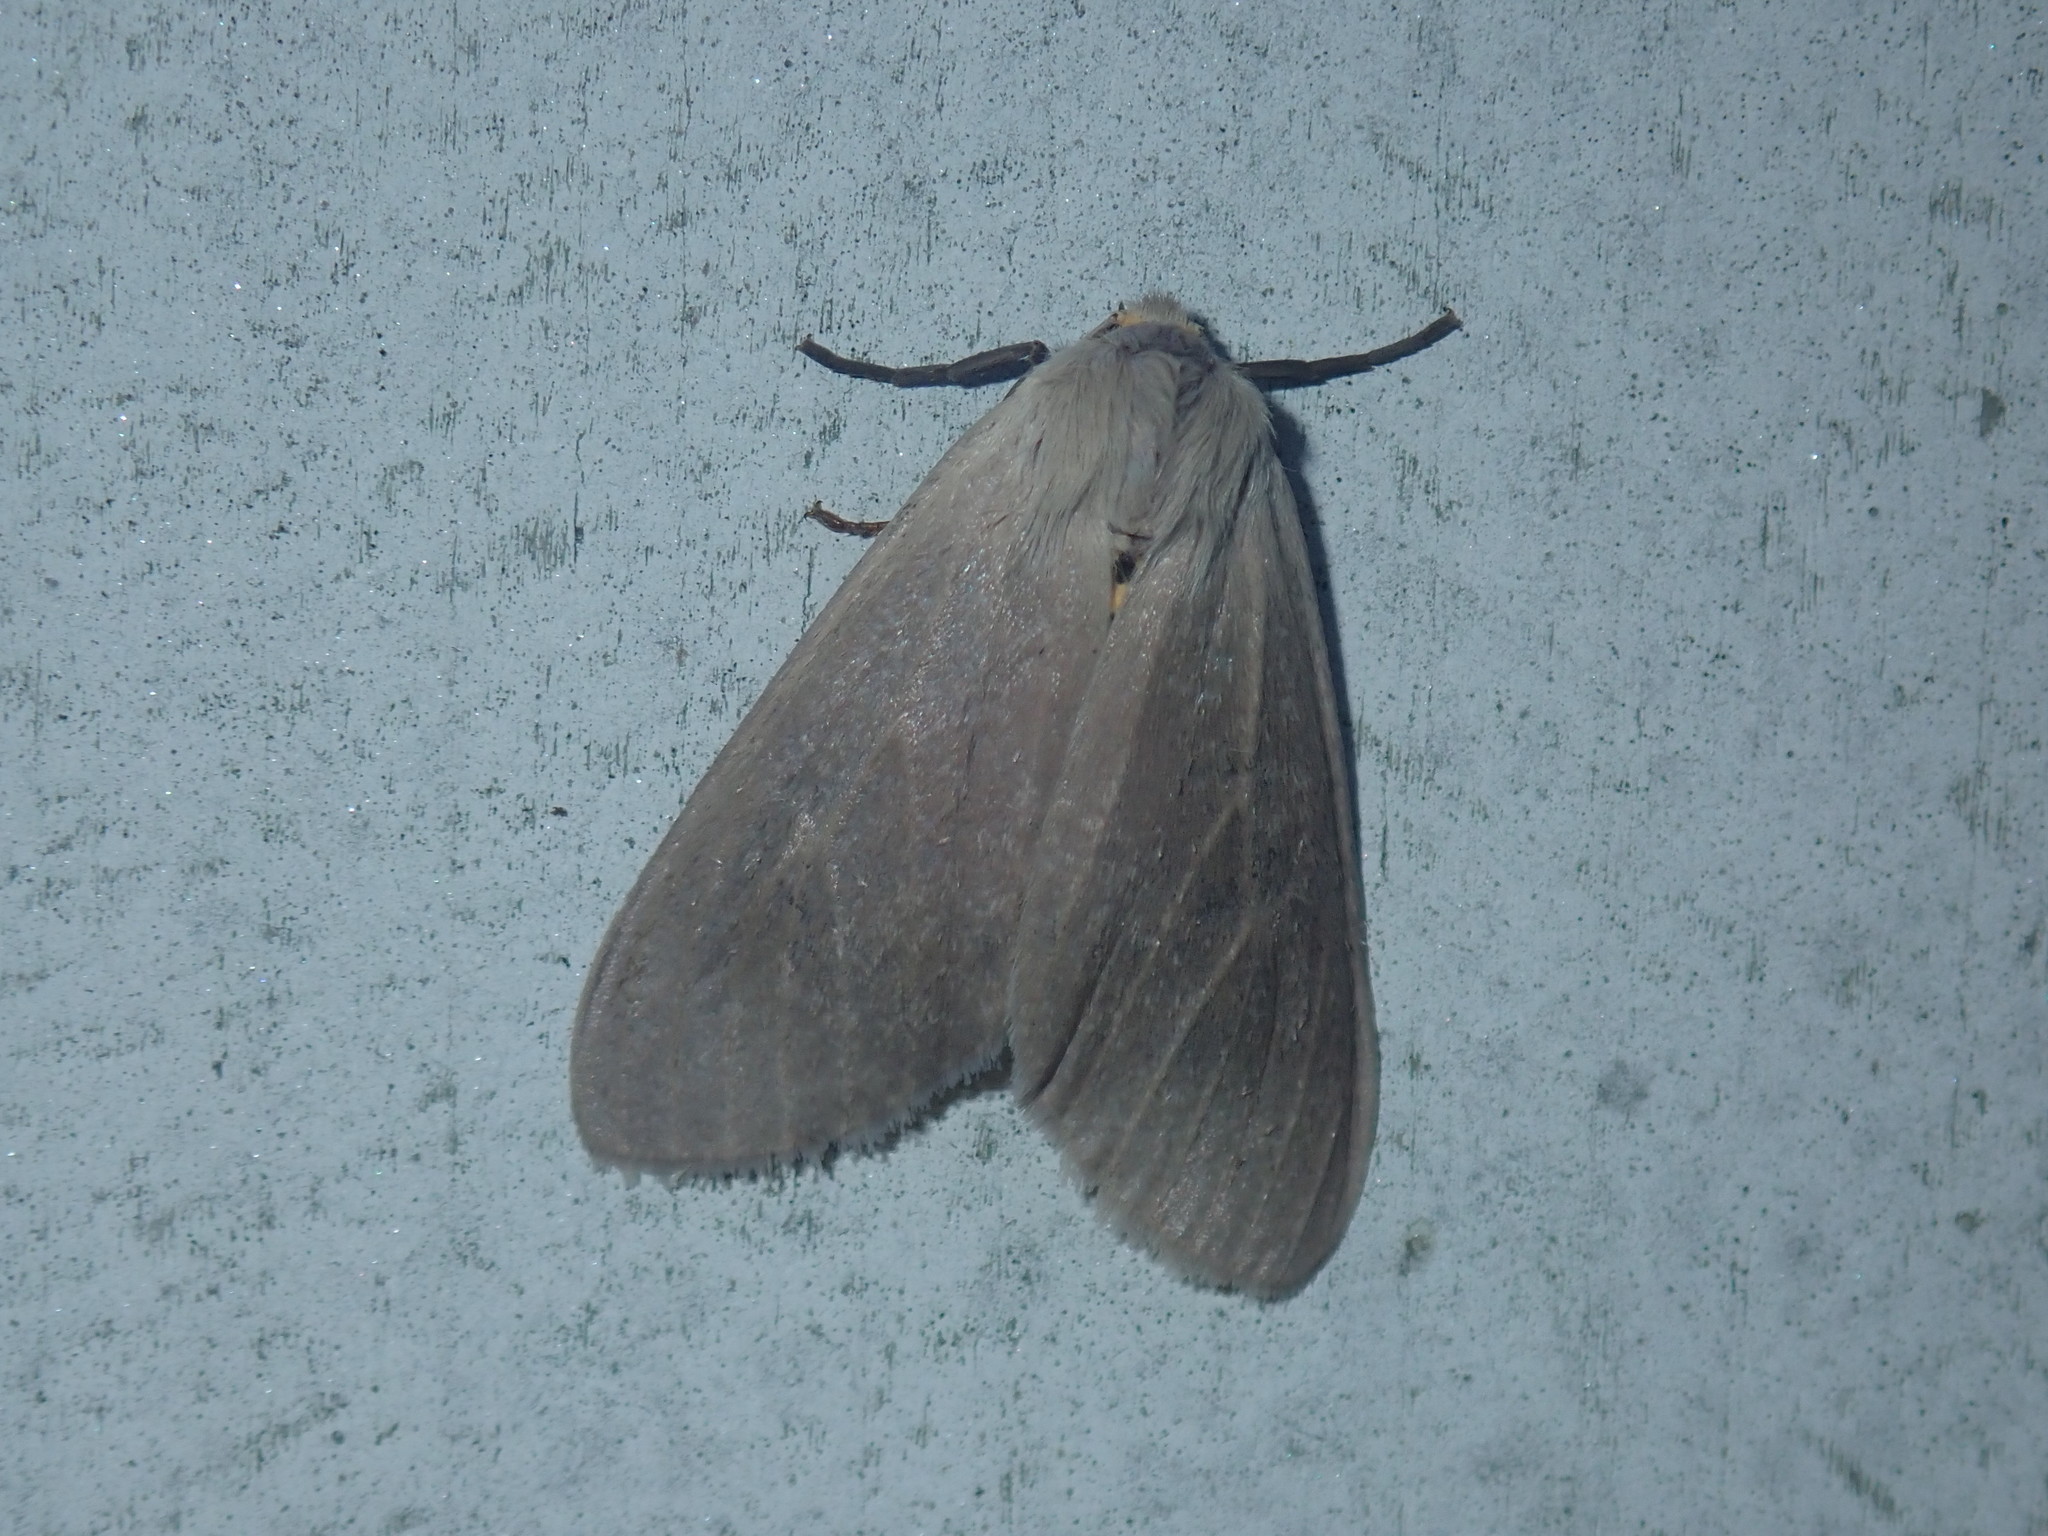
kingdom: Animalia
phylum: Arthropoda
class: Insecta
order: Lepidoptera
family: Erebidae
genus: Euchaetes
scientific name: Euchaetes egle
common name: Milkweed tussock moth
